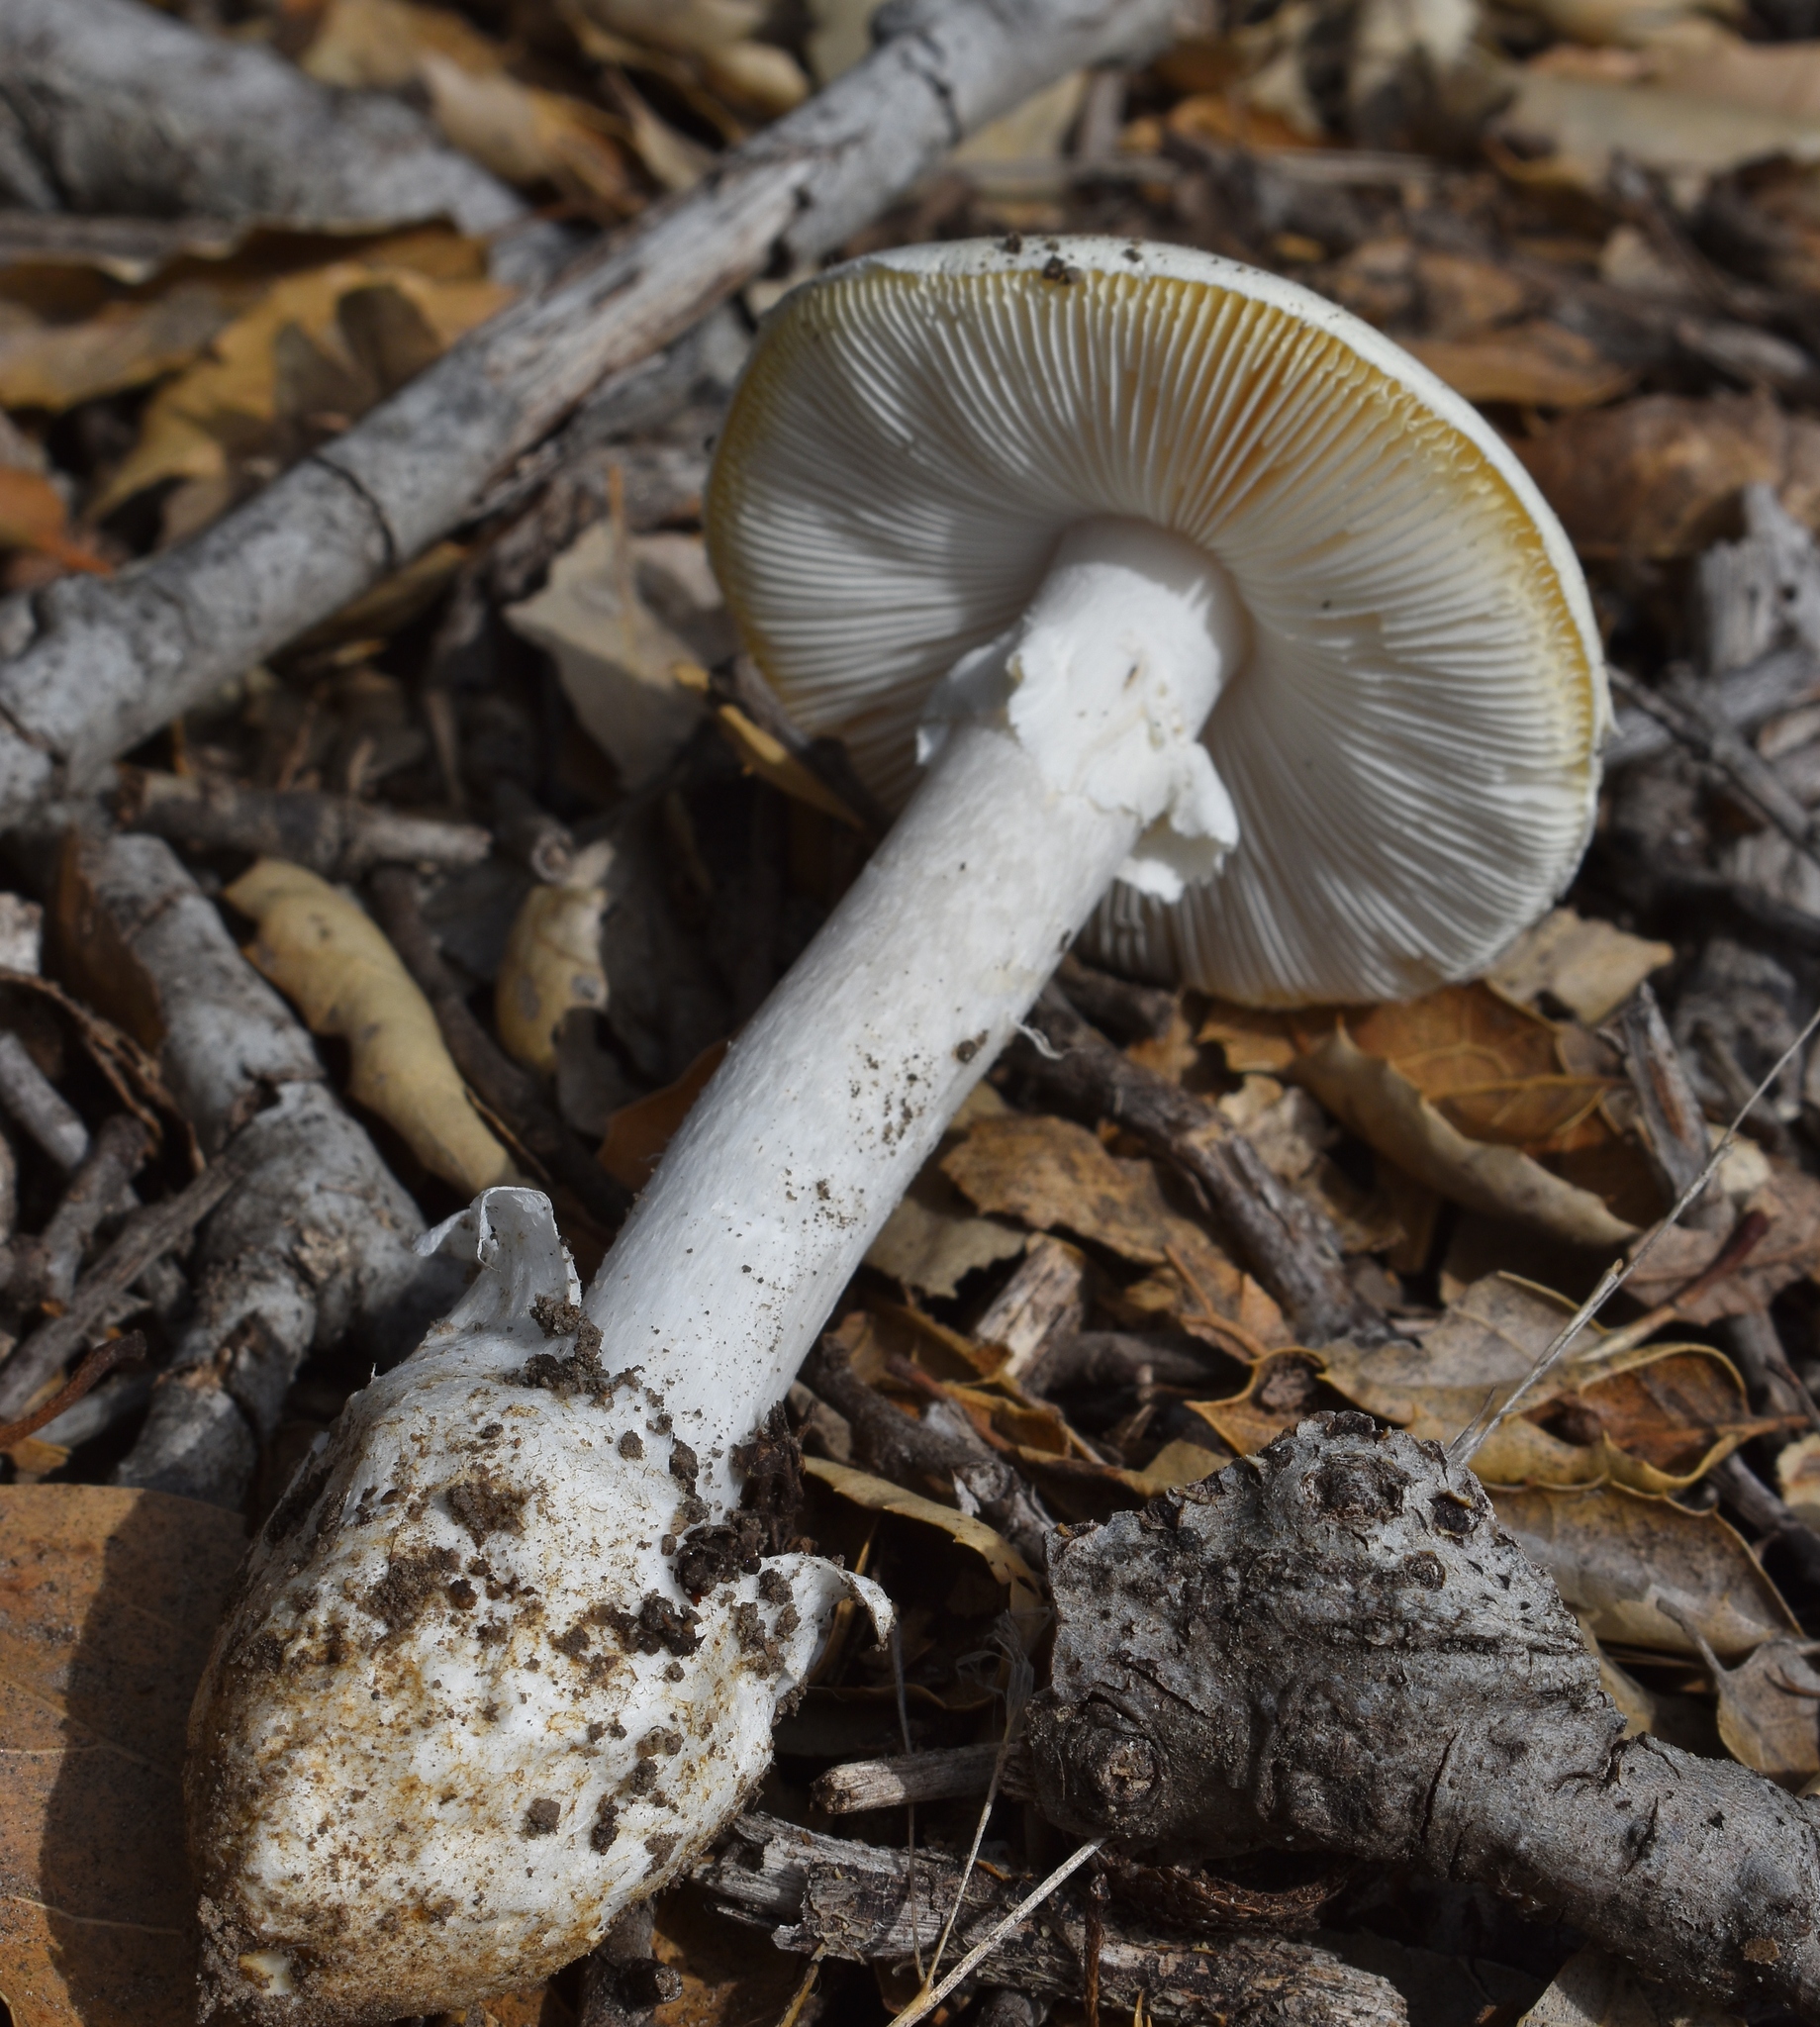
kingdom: Fungi
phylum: Basidiomycota
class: Agaricomycetes
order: Agaricales
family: Amanitaceae
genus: Amanita
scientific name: Amanita ocreata
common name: Western destroying angel
